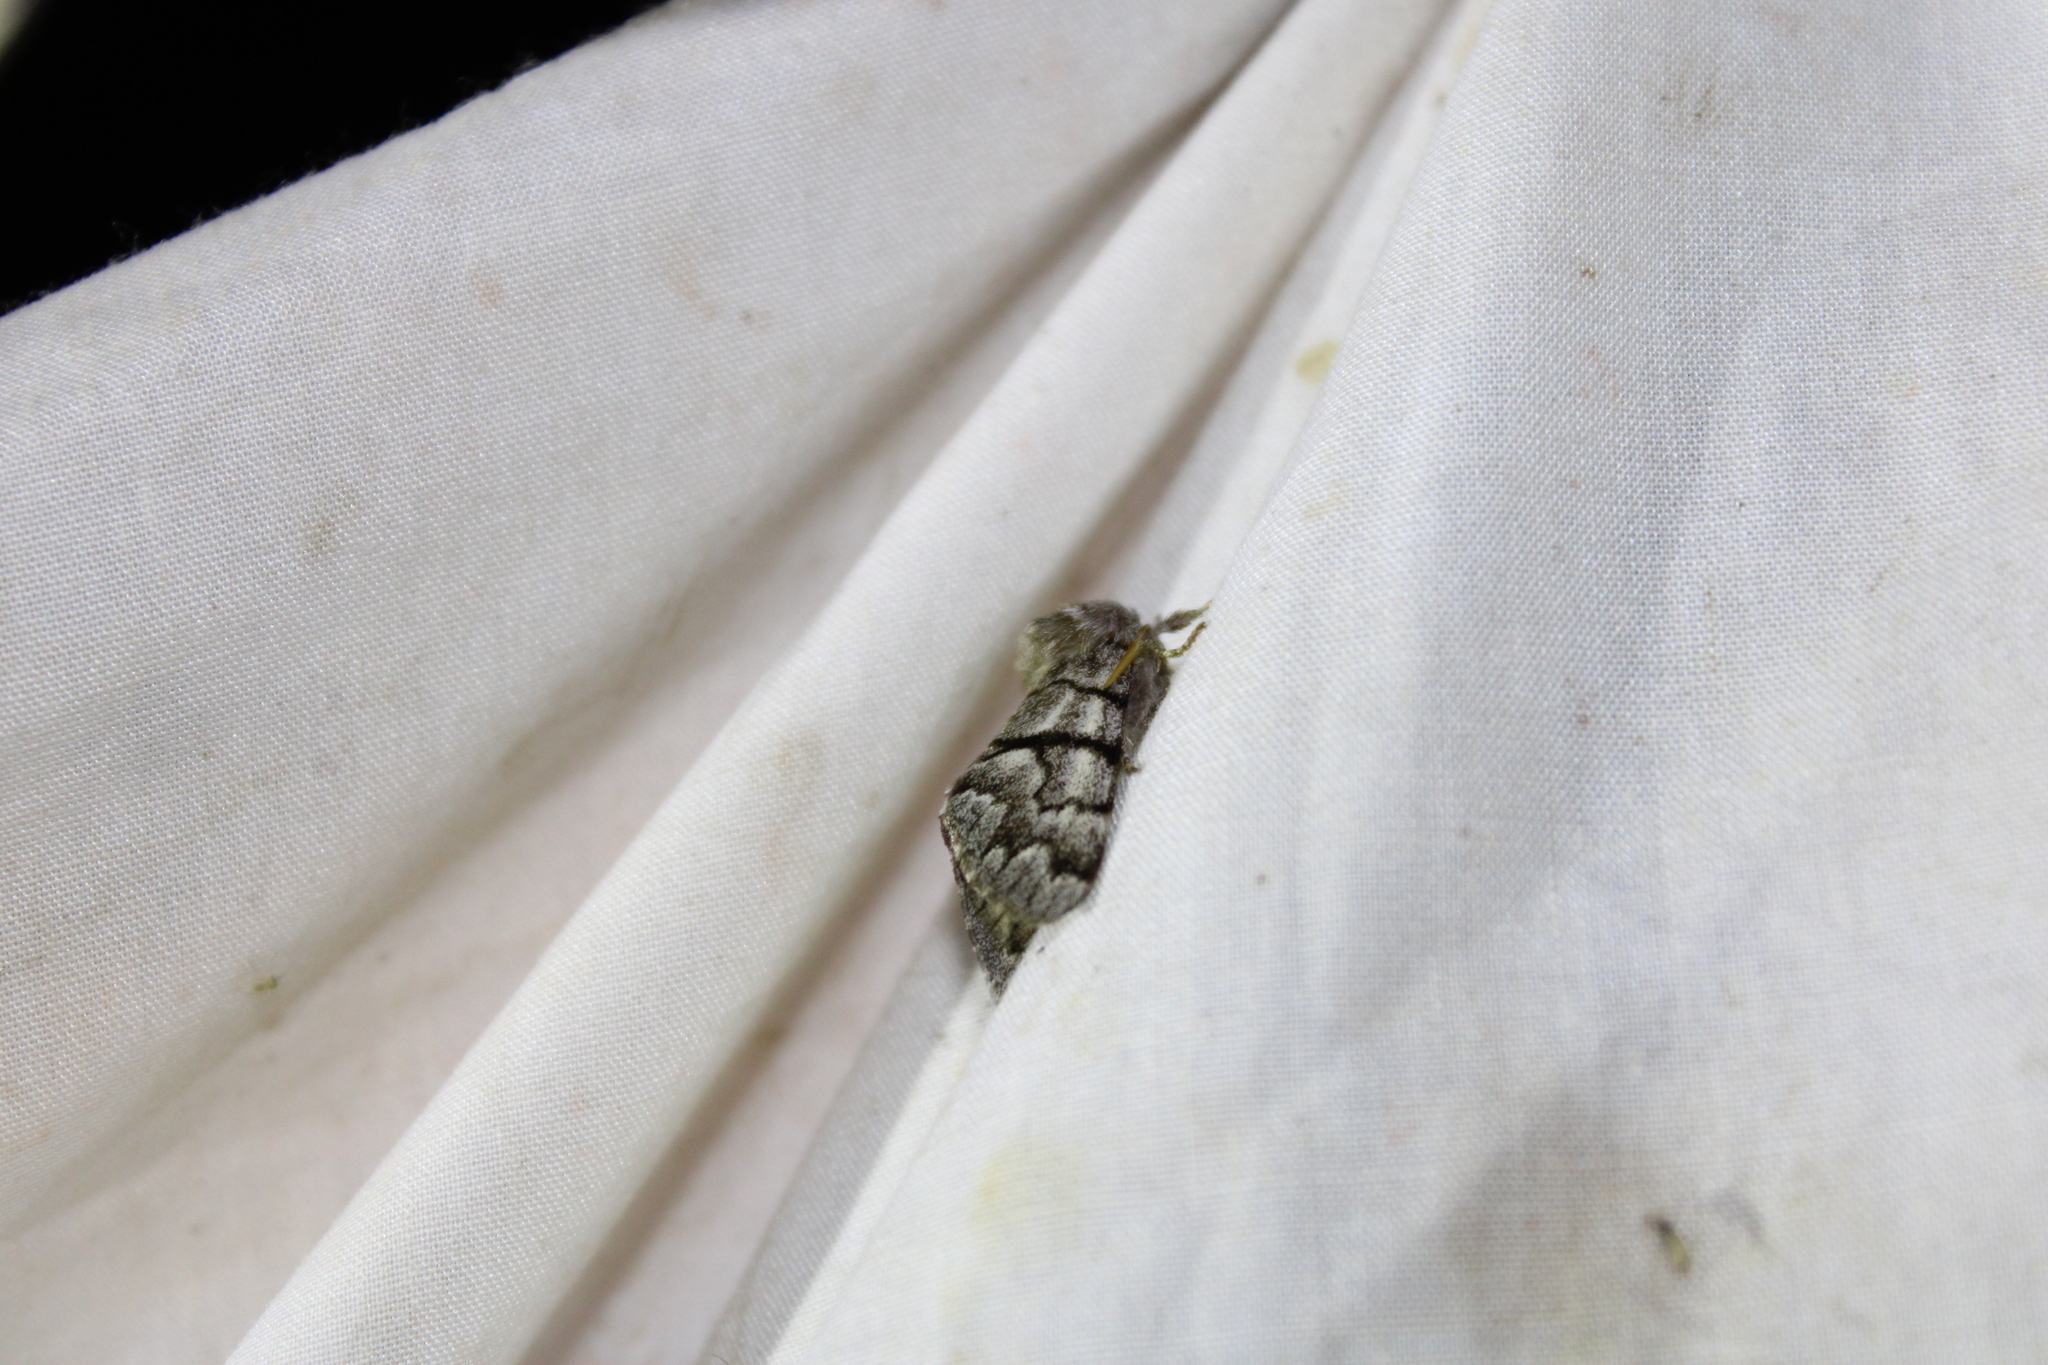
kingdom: Animalia
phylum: Arthropoda
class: Insecta
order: Lepidoptera
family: Noctuidae
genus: Panthea
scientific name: Panthea furcilla
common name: Eastern panthea moth
